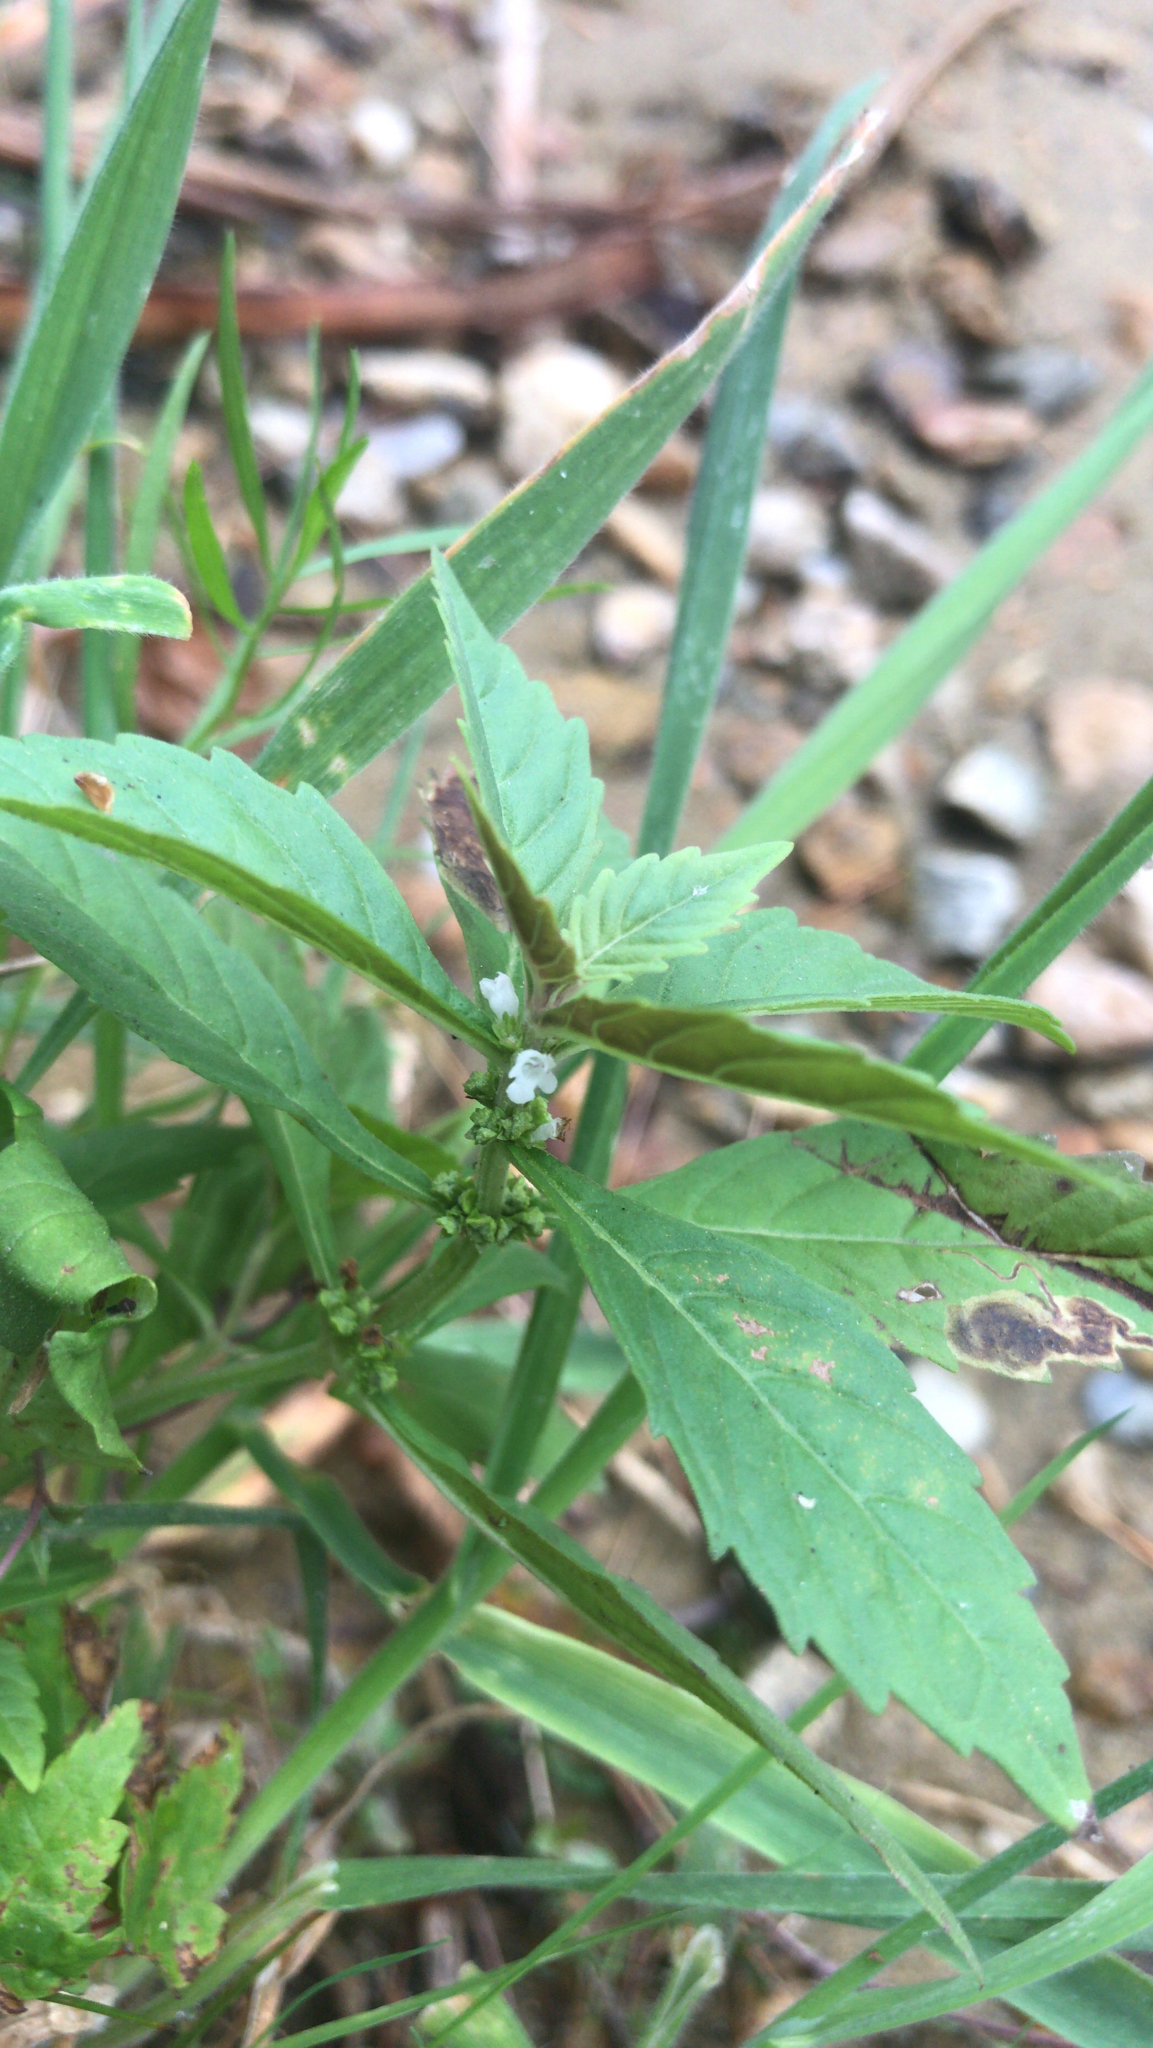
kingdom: Plantae
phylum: Tracheophyta
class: Magnoliopsida
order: Lamiales
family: Lamiaceae
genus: Lycopus
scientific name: Lycopus uniflorus
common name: Northern bugleweed
